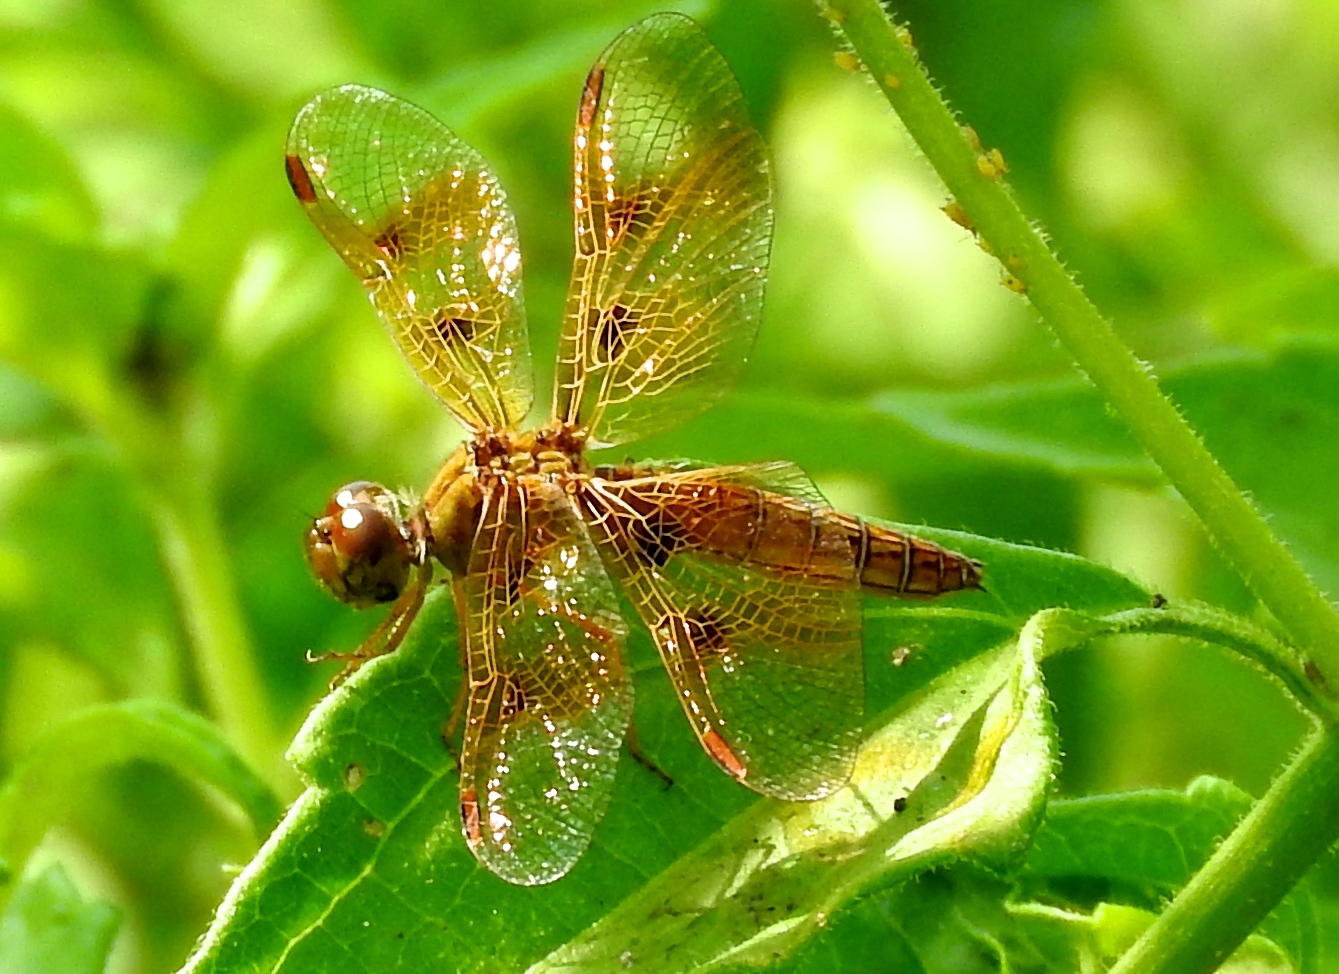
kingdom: Animalia
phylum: Arthropoda
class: Insecta
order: Odonata
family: Libellulidae
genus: Perithemis
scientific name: Perithemis
